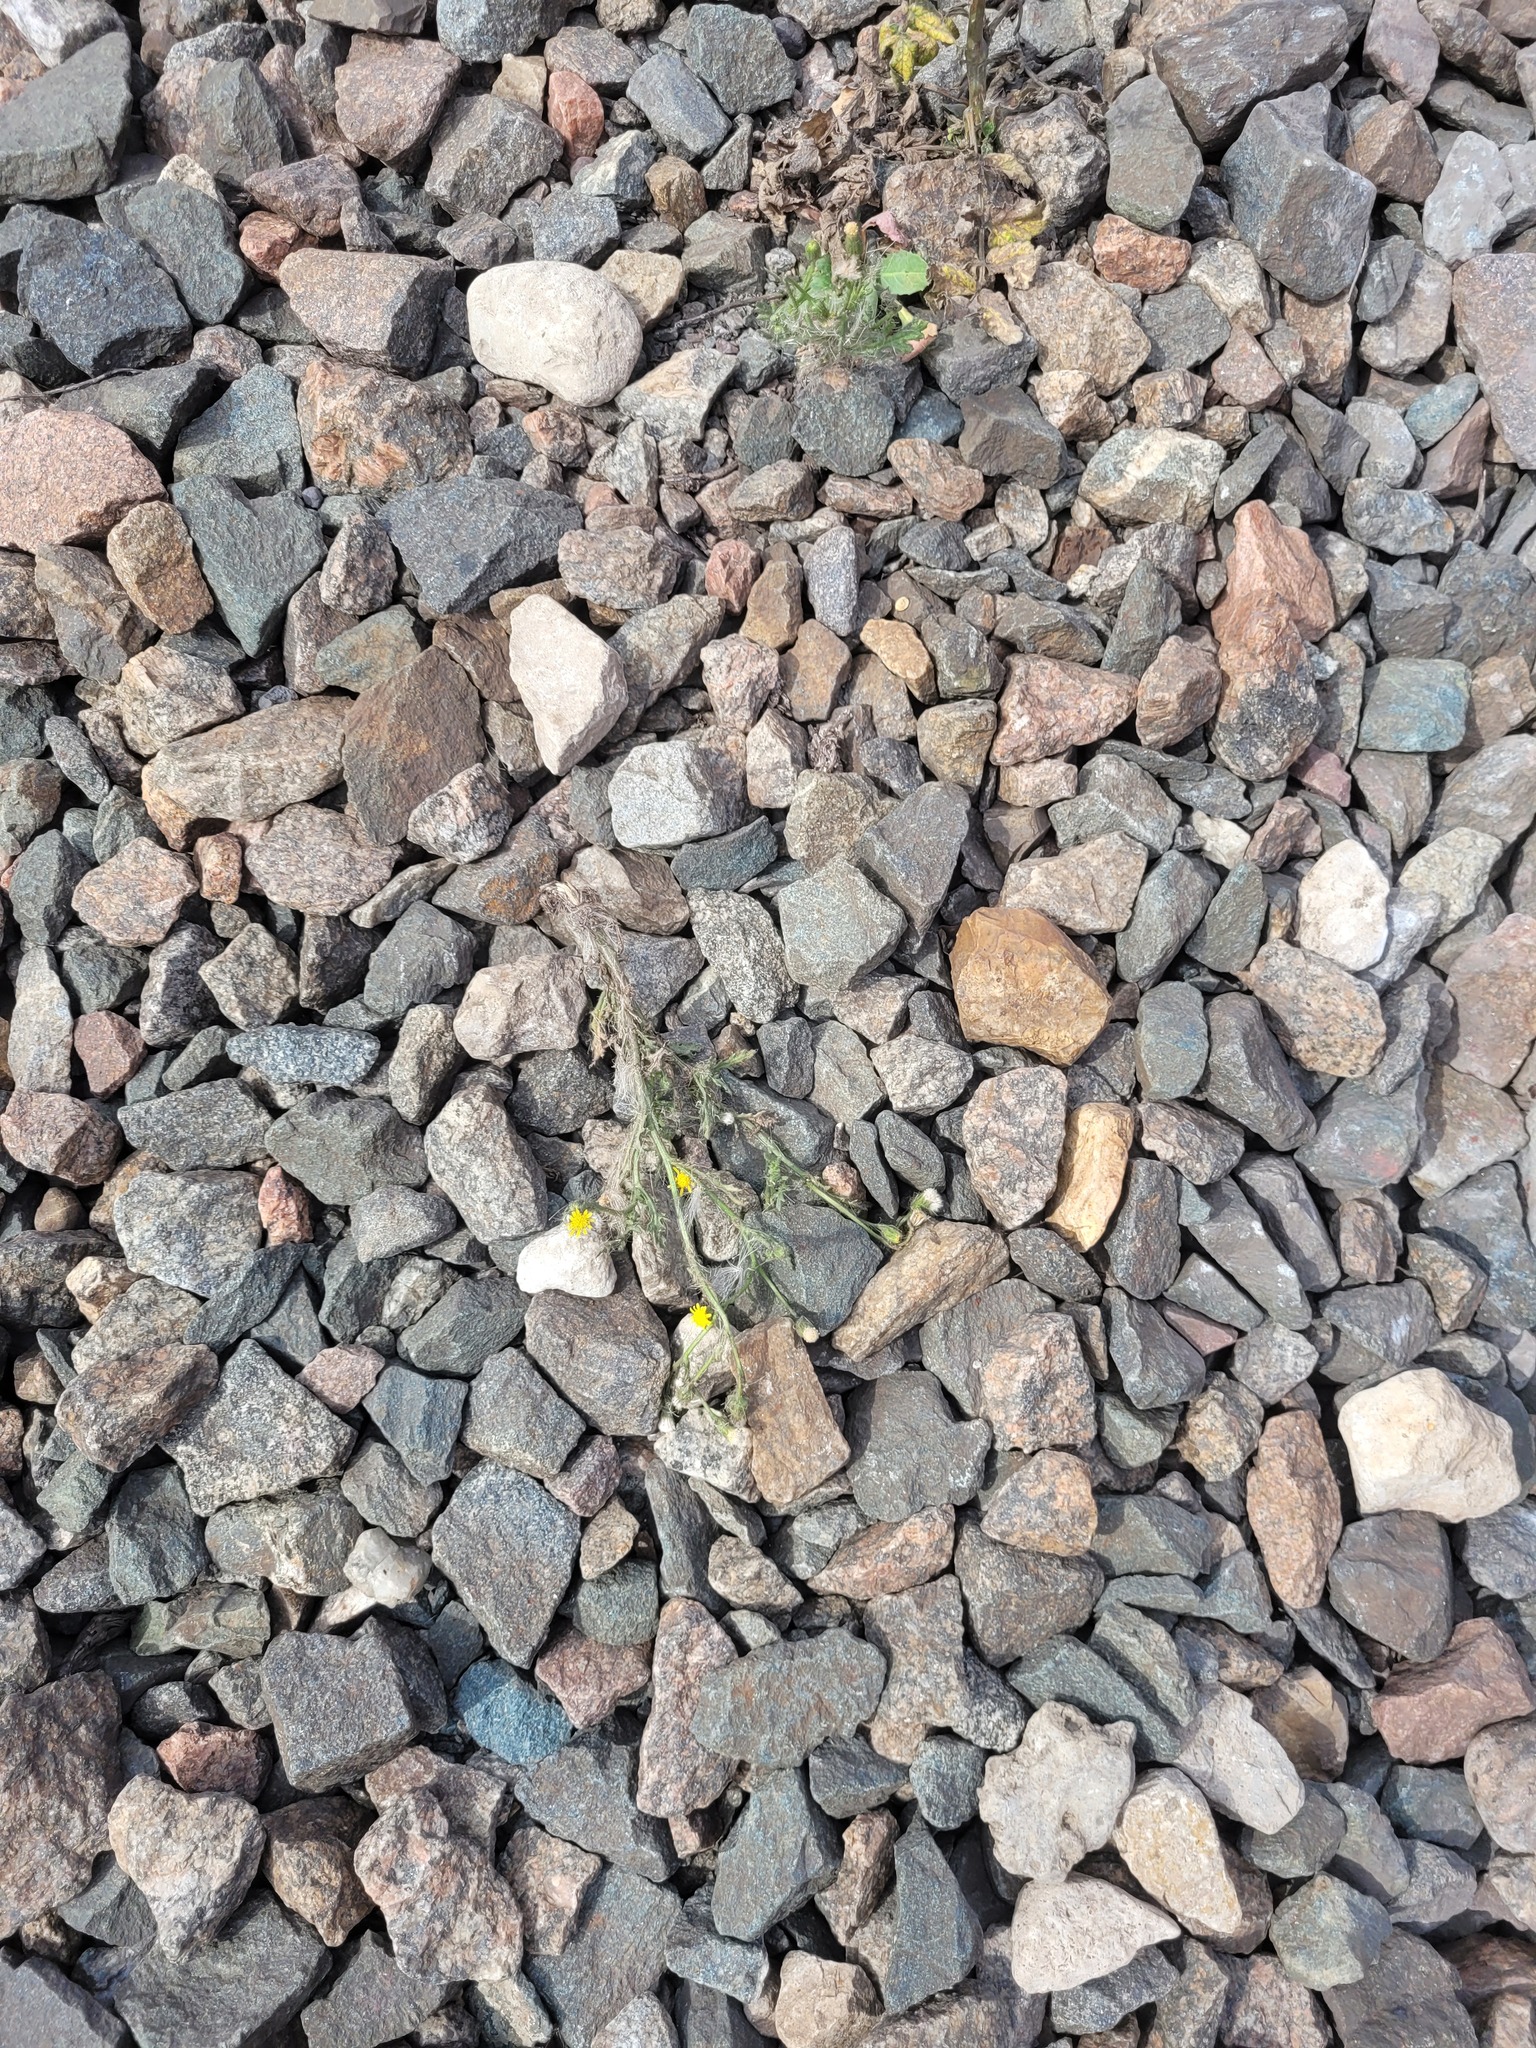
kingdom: Plantae
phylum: Tracheophyta
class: Magnoliopsida
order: Asterales
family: Asteraceae
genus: Senecio
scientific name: Senecio viscosus
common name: Sticky groundsel
